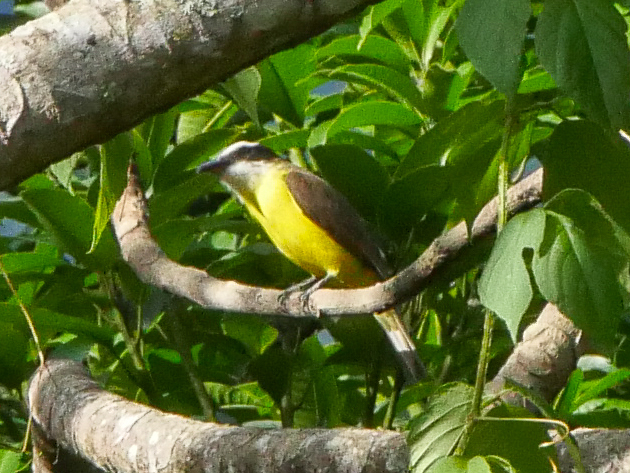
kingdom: Animalia
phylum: Chordata
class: Aves
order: Passeriformes
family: Tyrannidae
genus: Pitangus
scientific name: Pitangus sulphuratus
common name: Great kiskadee
